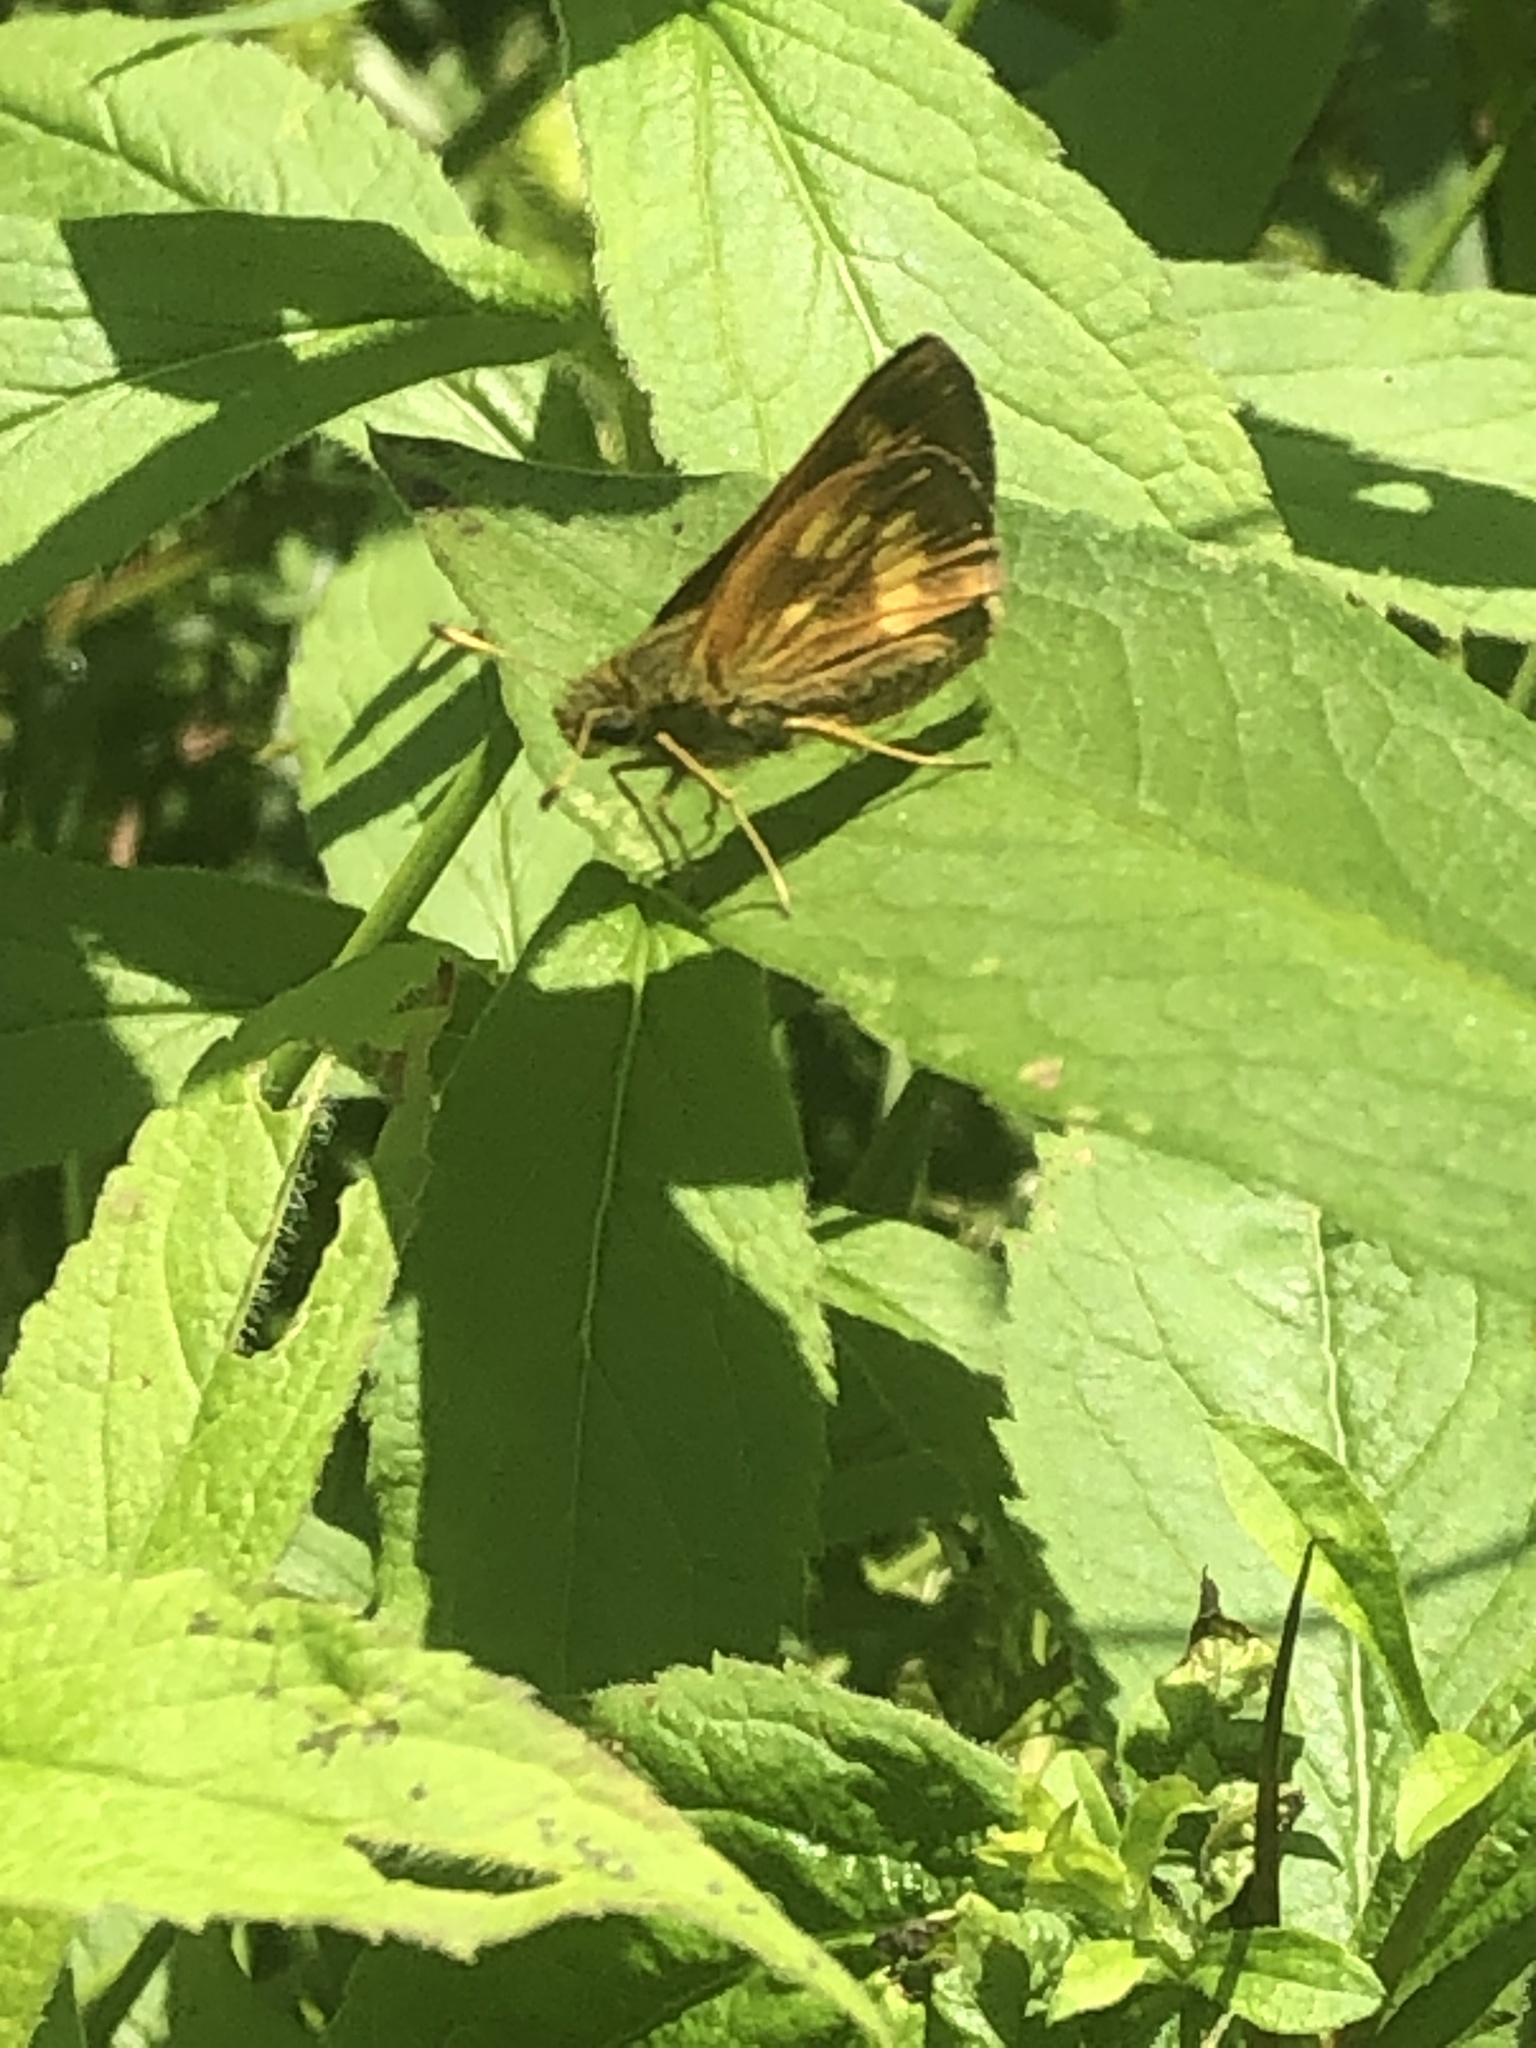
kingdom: Animalia
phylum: Arthropoda
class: Insecta
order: Lepidoptera
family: Hesperiidae
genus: Polites
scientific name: Polites mystic
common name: Long dash
